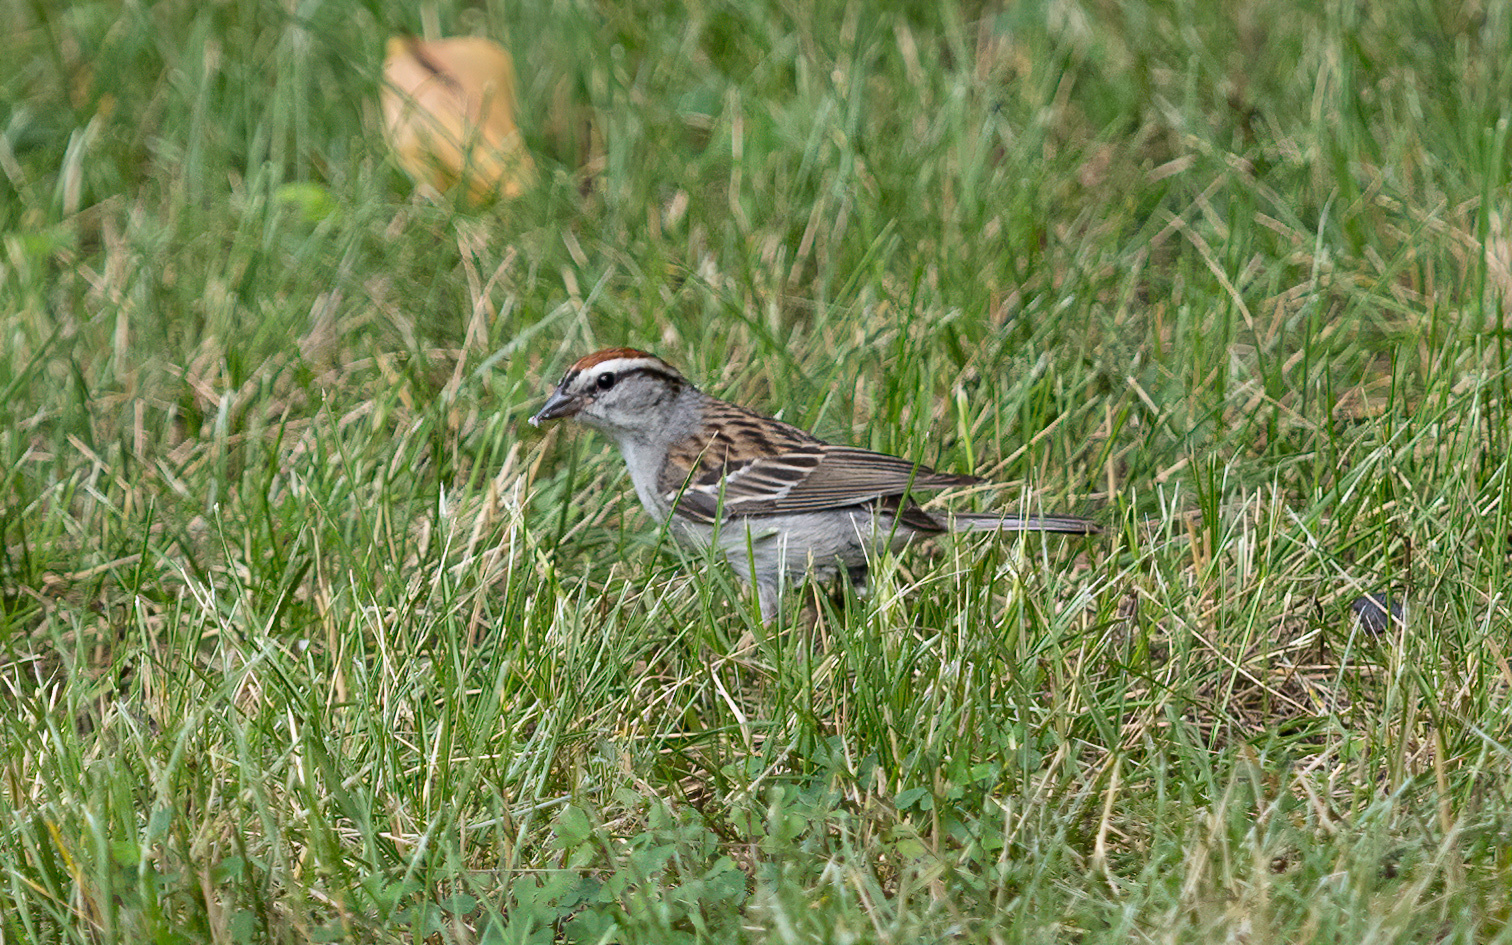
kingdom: Animalia
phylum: Chordata
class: Aves
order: Passeriformes
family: Passerellidae
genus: Spizella
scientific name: Spizella passerina
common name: Chipping sparrow
